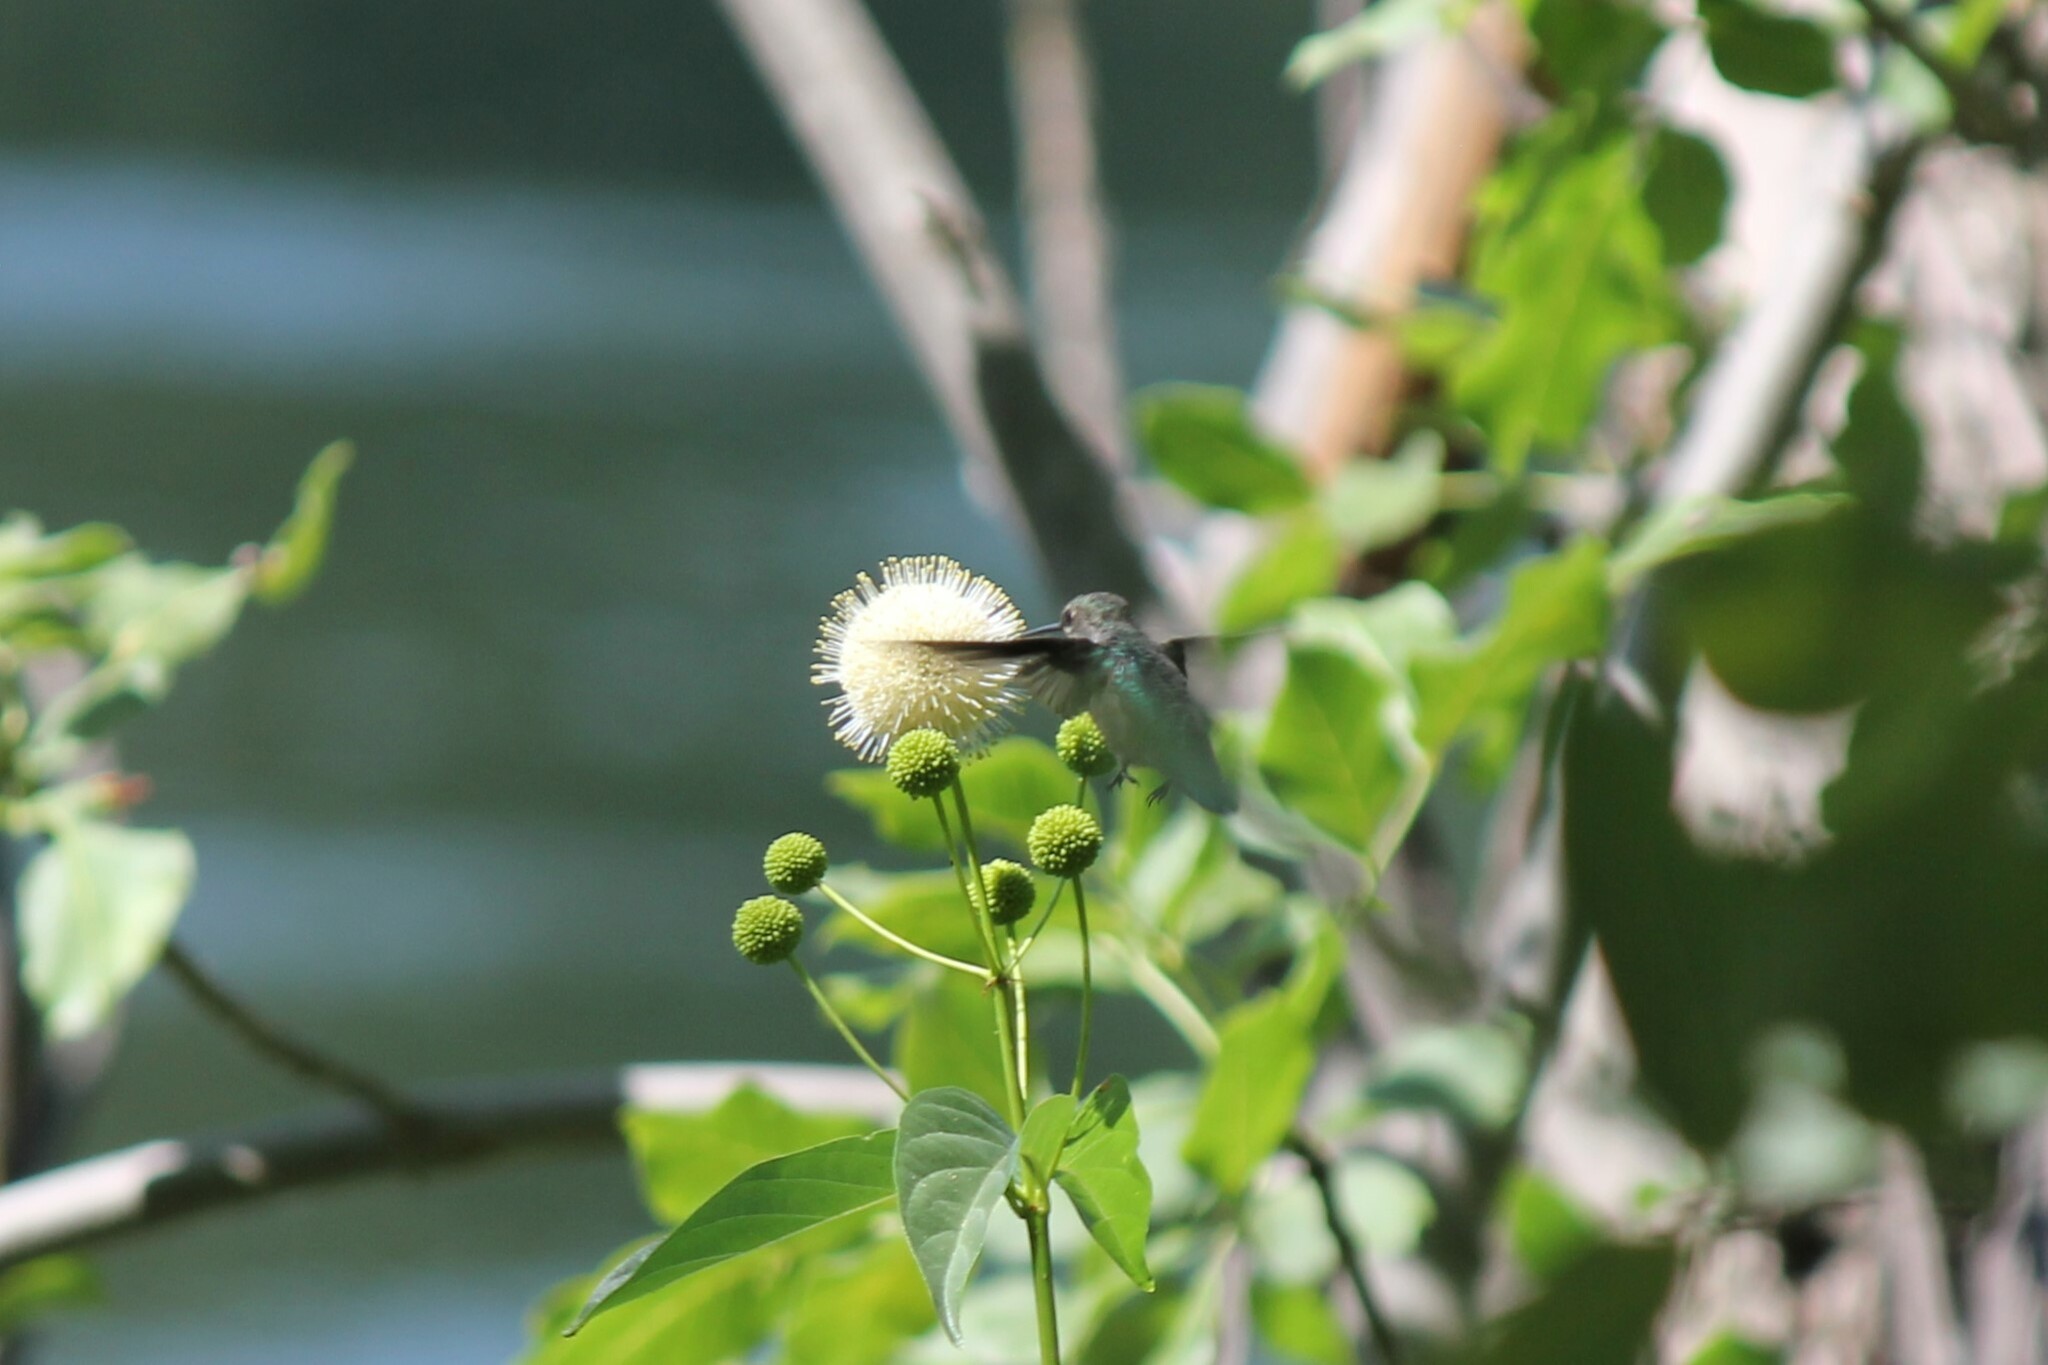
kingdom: Plantae
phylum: Tracheophyta
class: Magnoliopsida
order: Gentianales
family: Rubiaceae
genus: Cephalanthus
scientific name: Cephalanthus occidentalis
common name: Button-willow
